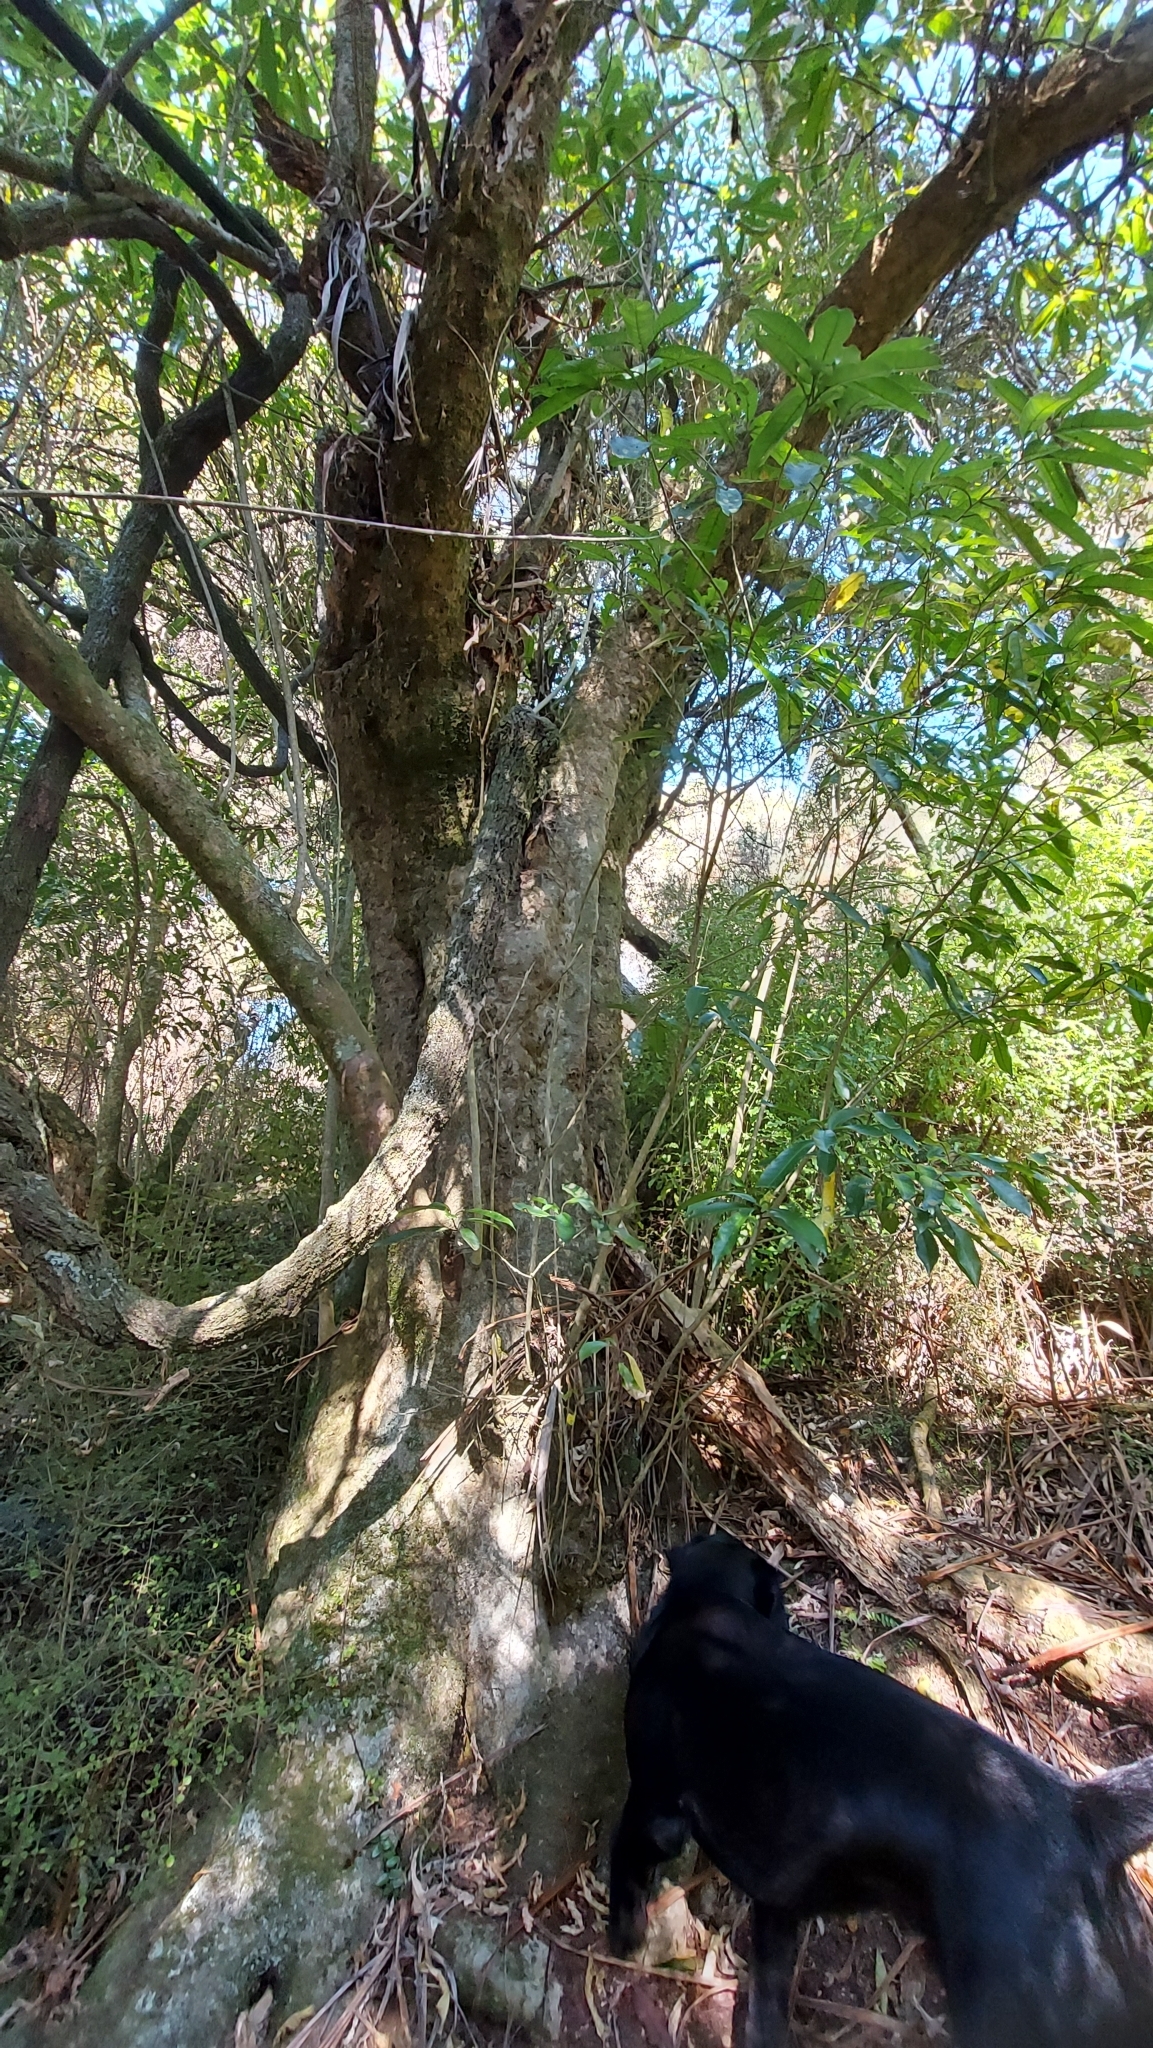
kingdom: Plantae
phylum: Tracheophyta
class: Magnoliopsida
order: Malpighiales
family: Violaceae
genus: Melicytus
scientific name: Melicytus ramiflorus
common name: Mahoe
